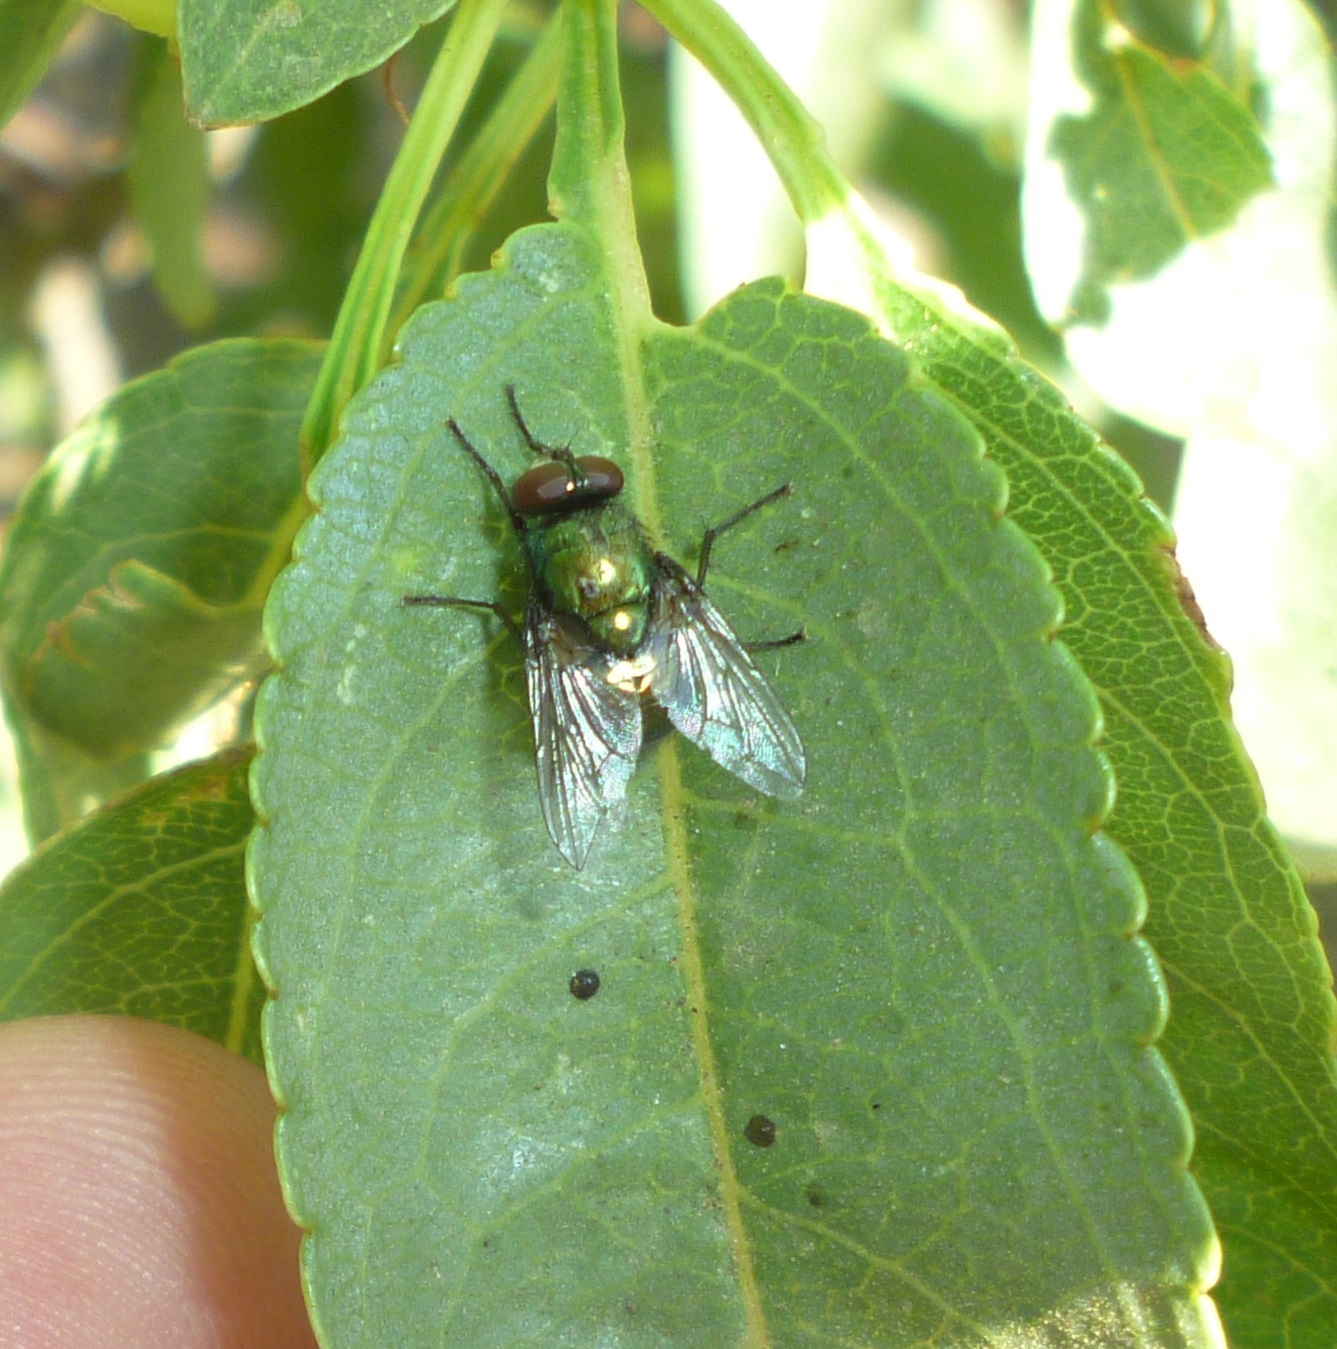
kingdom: Animalia
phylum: Arthropoda
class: Insecta
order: Diptera
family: Muscidae
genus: Neomyia
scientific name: Neomyia cornicina
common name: House fly
